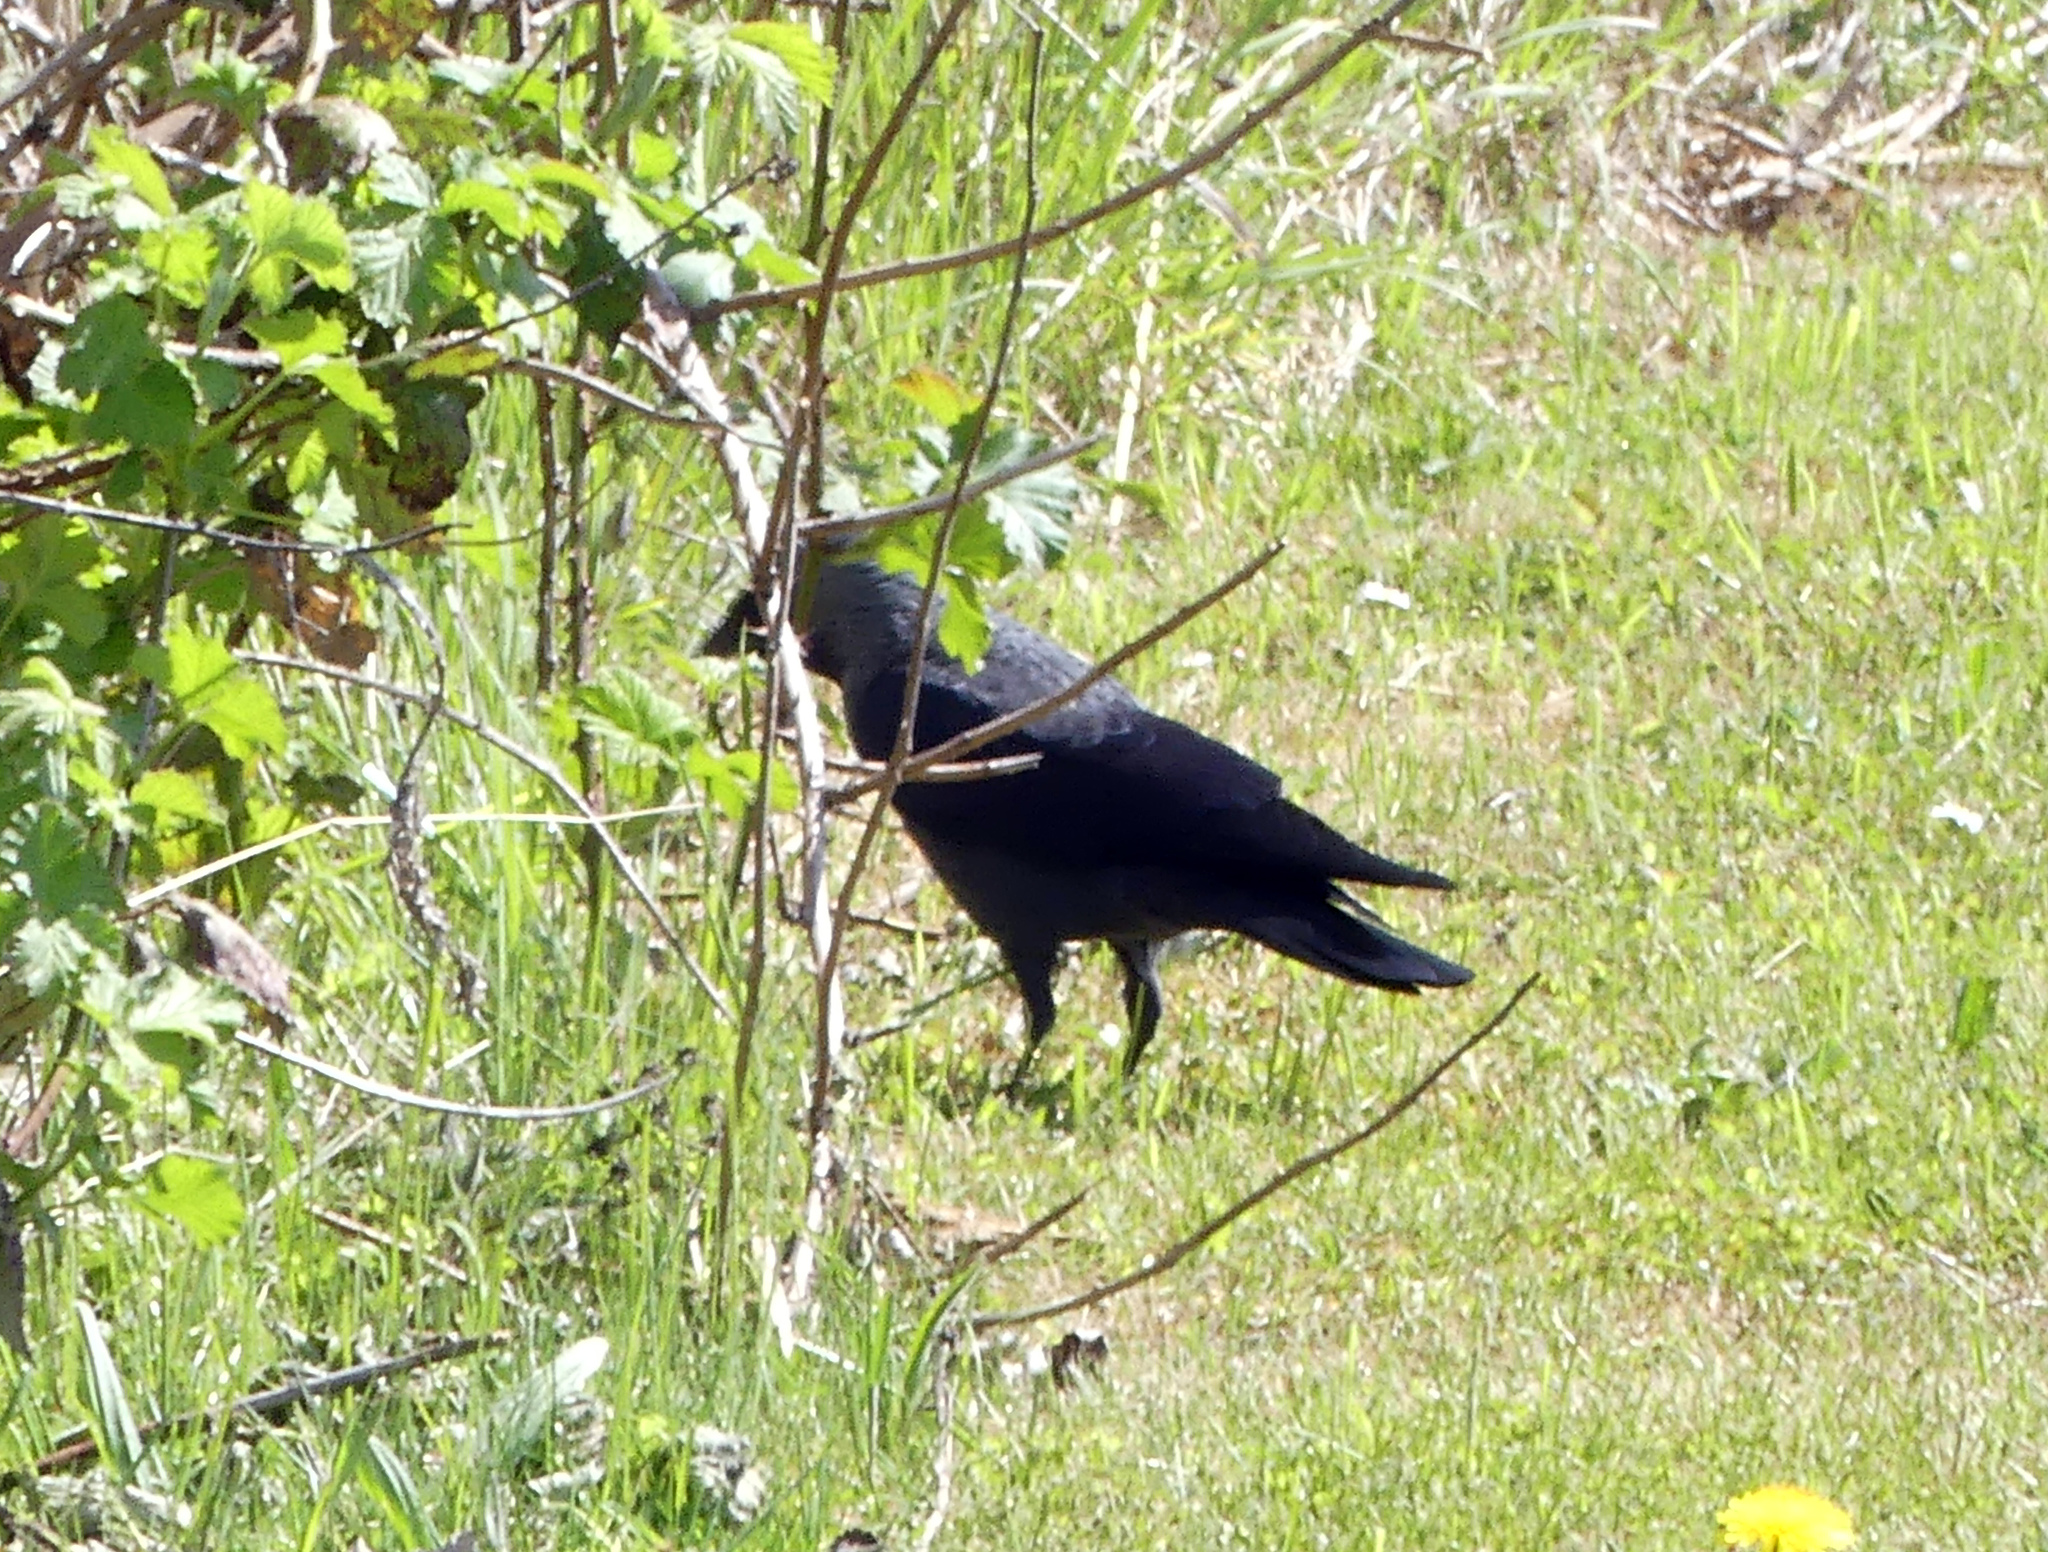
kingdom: Animalia
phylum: Chordata
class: Aves
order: Passeriformes
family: Corvidae
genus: Coloeus
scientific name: Coloeus monedula
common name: Western jackdaw
